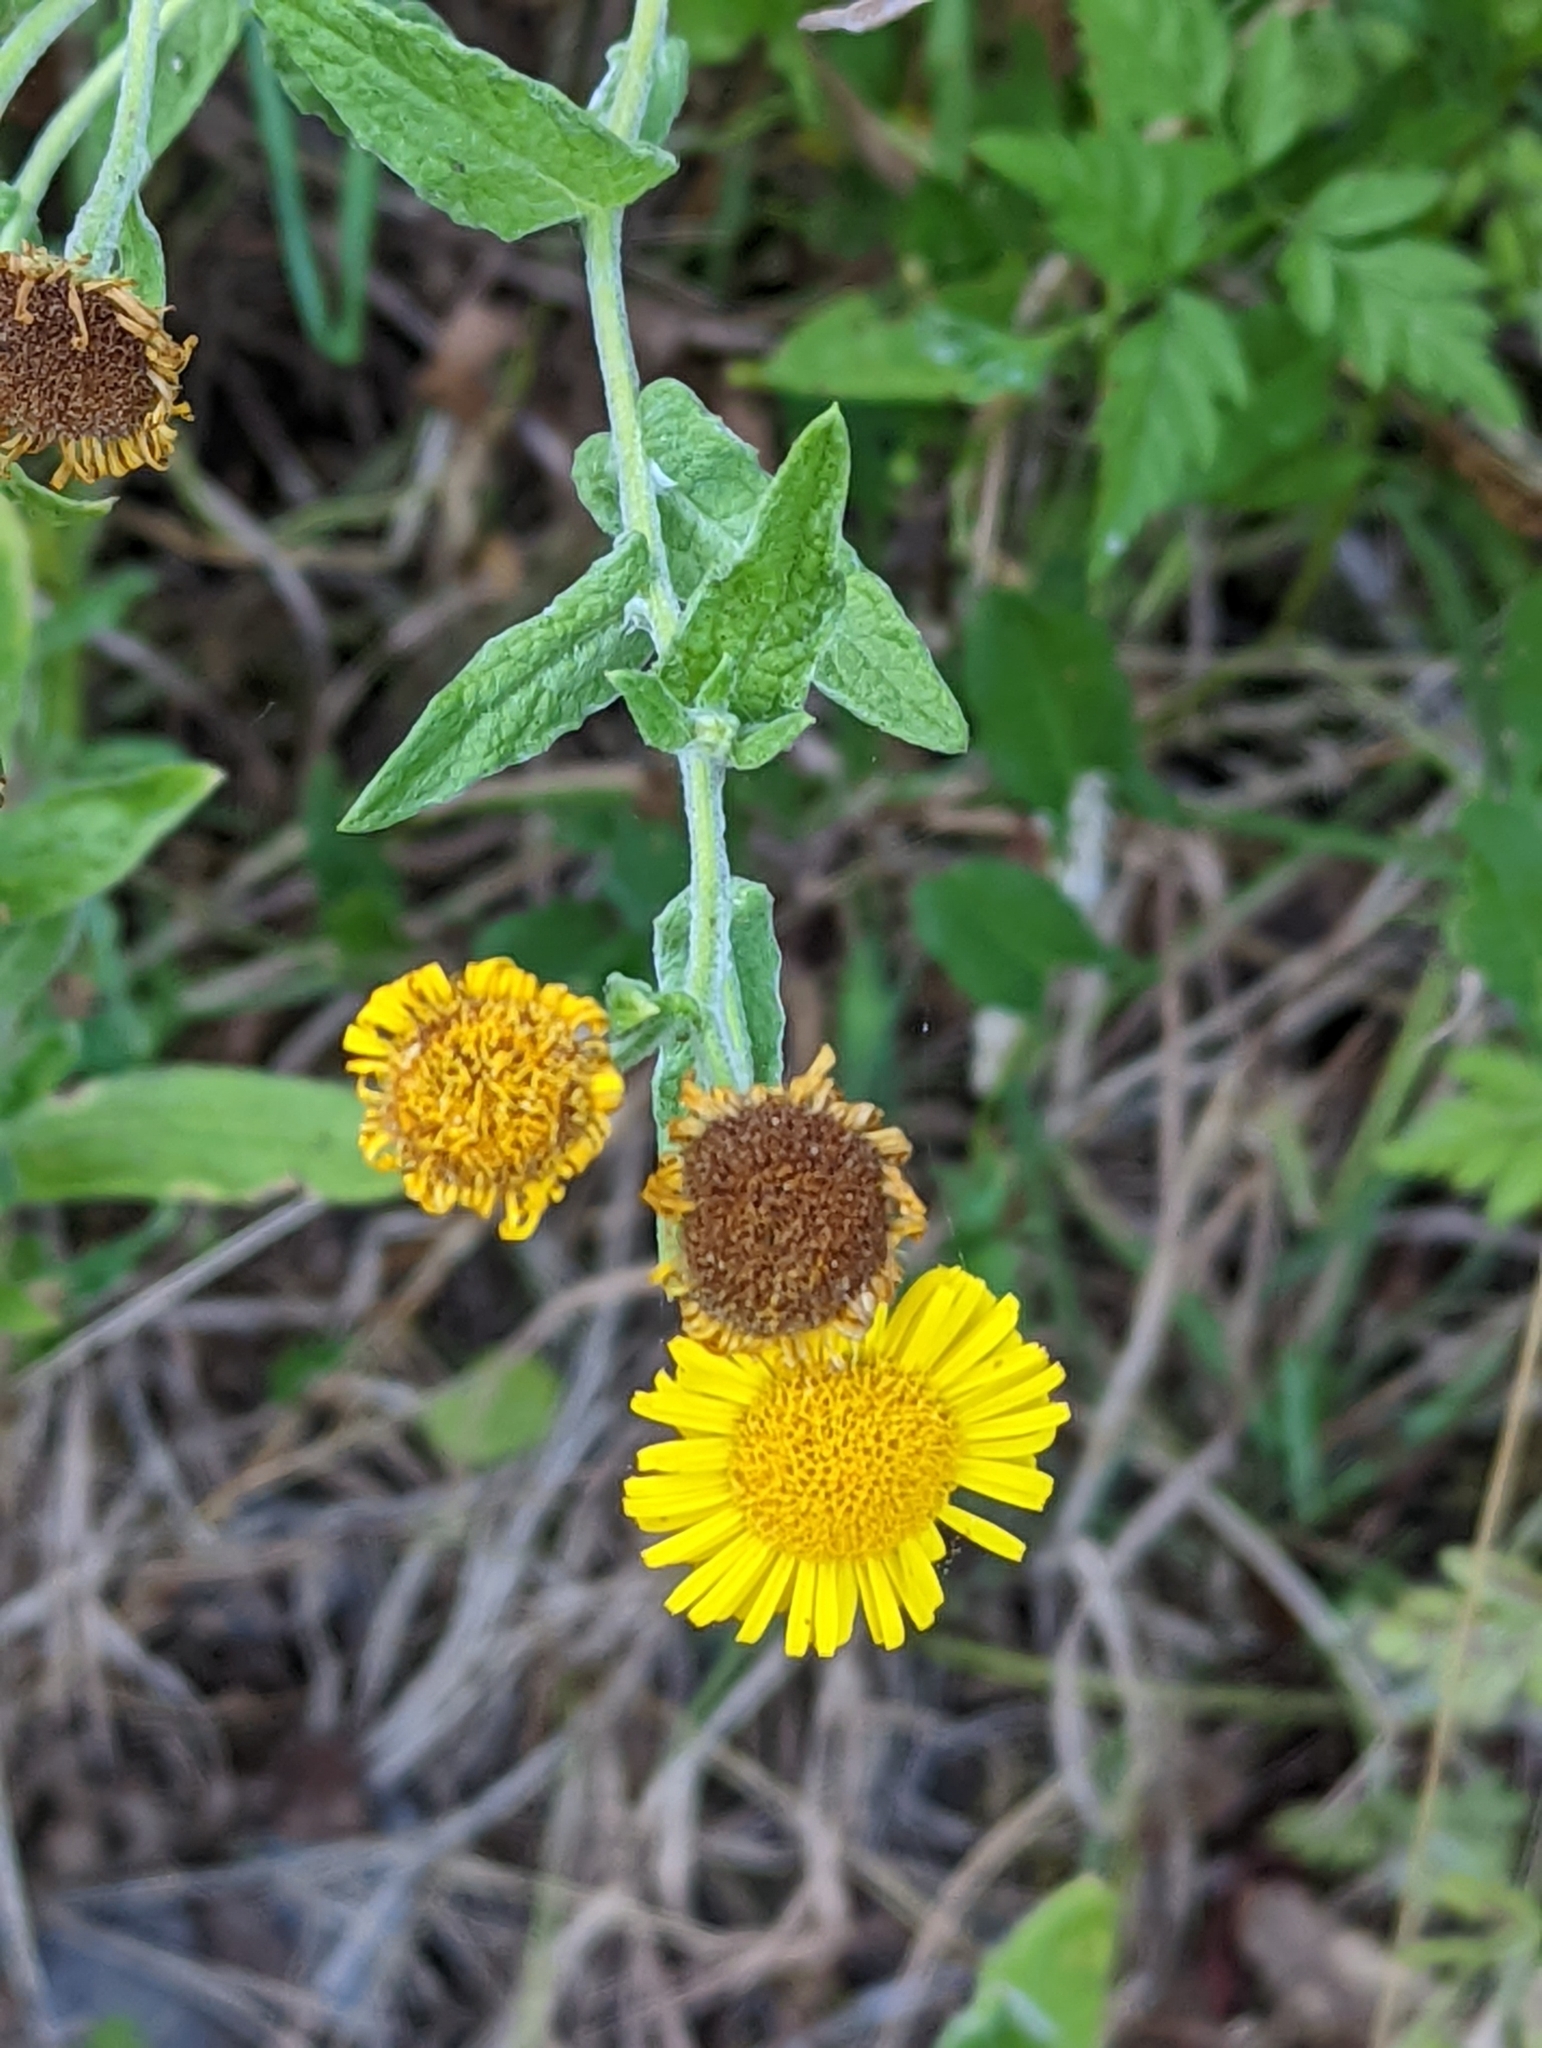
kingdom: Plantae
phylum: Tracheophyta
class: Magnoliopsida
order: Asterales
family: Asteraceae
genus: Pulicaria
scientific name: Pulicaria dysenterica
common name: Common fleabane
